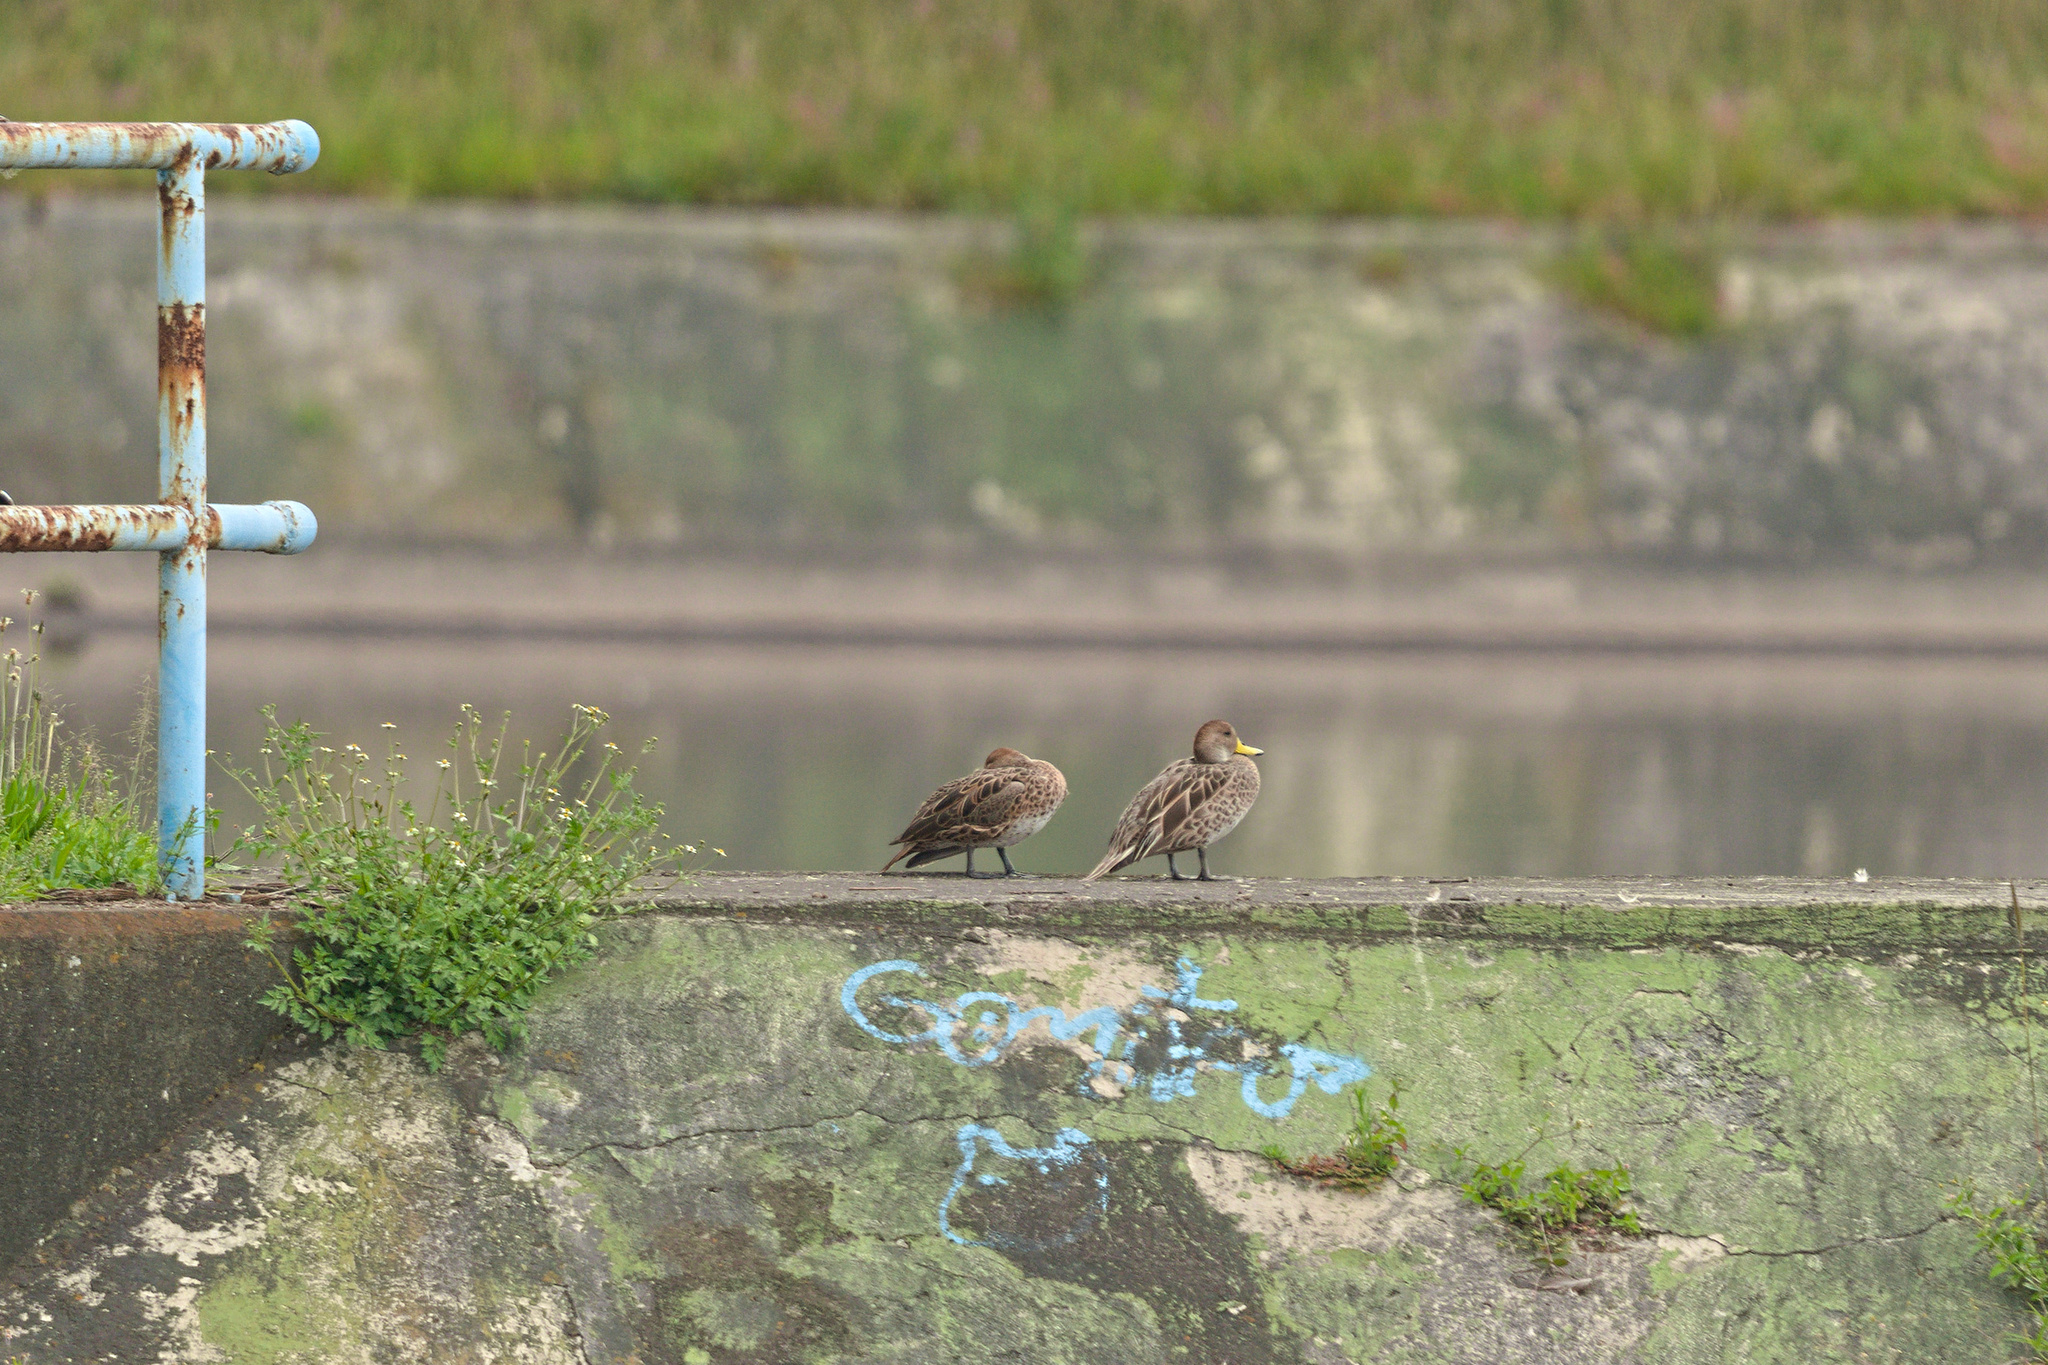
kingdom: Animalia
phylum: Chordata
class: Aves
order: Anseriformes
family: Anatidae
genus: Anas
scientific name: Anas georgica
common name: Yellow-billed pintail
